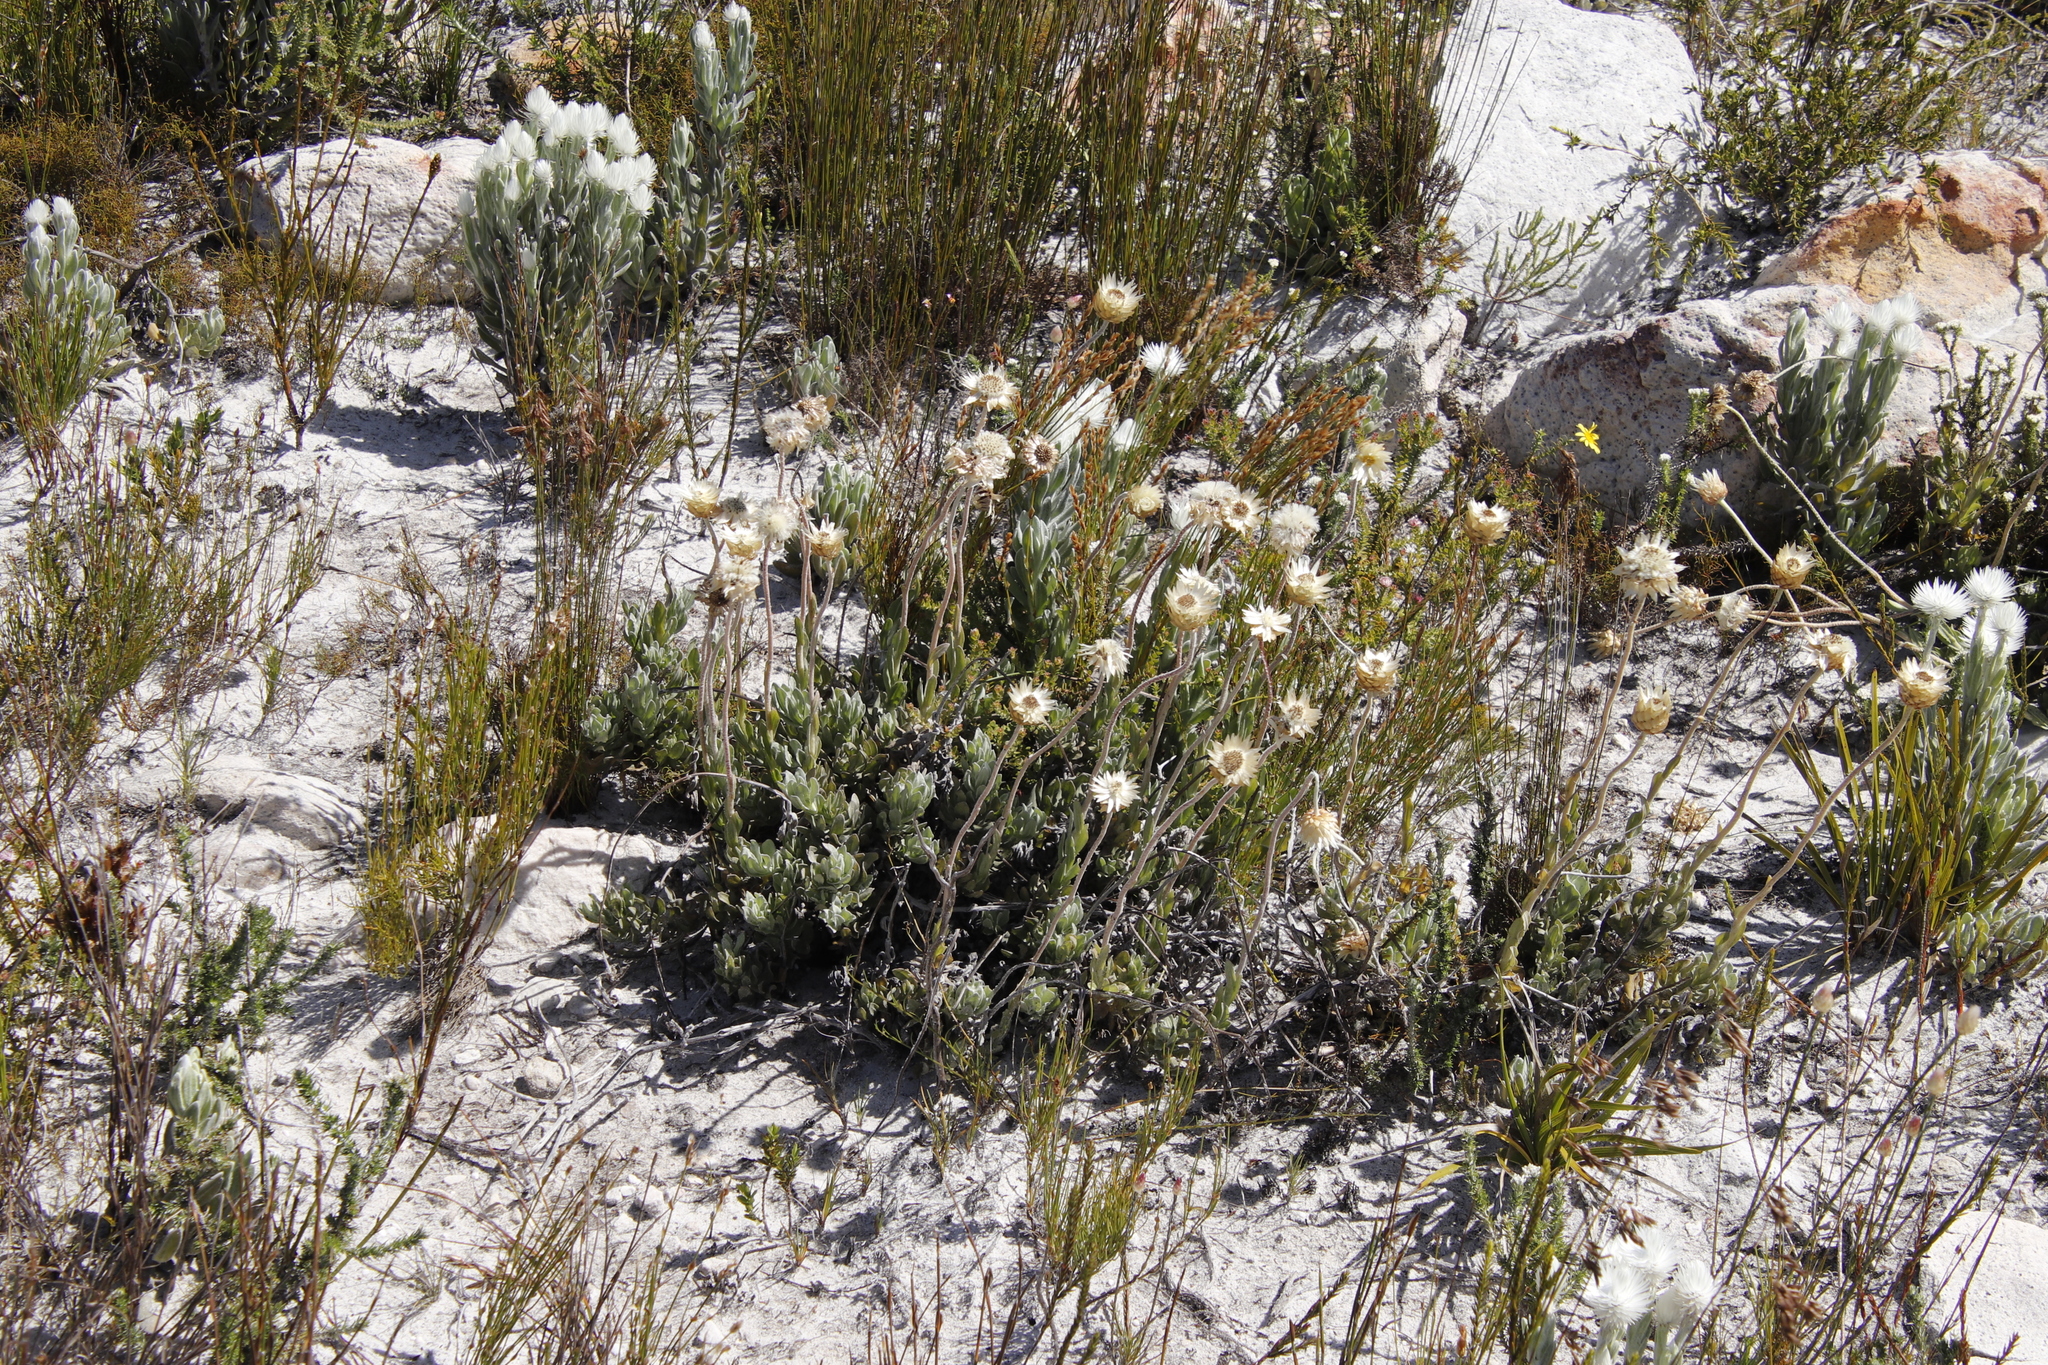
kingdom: Plantae
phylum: Tracheophyta
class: Magnoliopsida
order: Asterales
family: Asteraceae
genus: Syncarpha
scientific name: Syncarpha speciosissima
